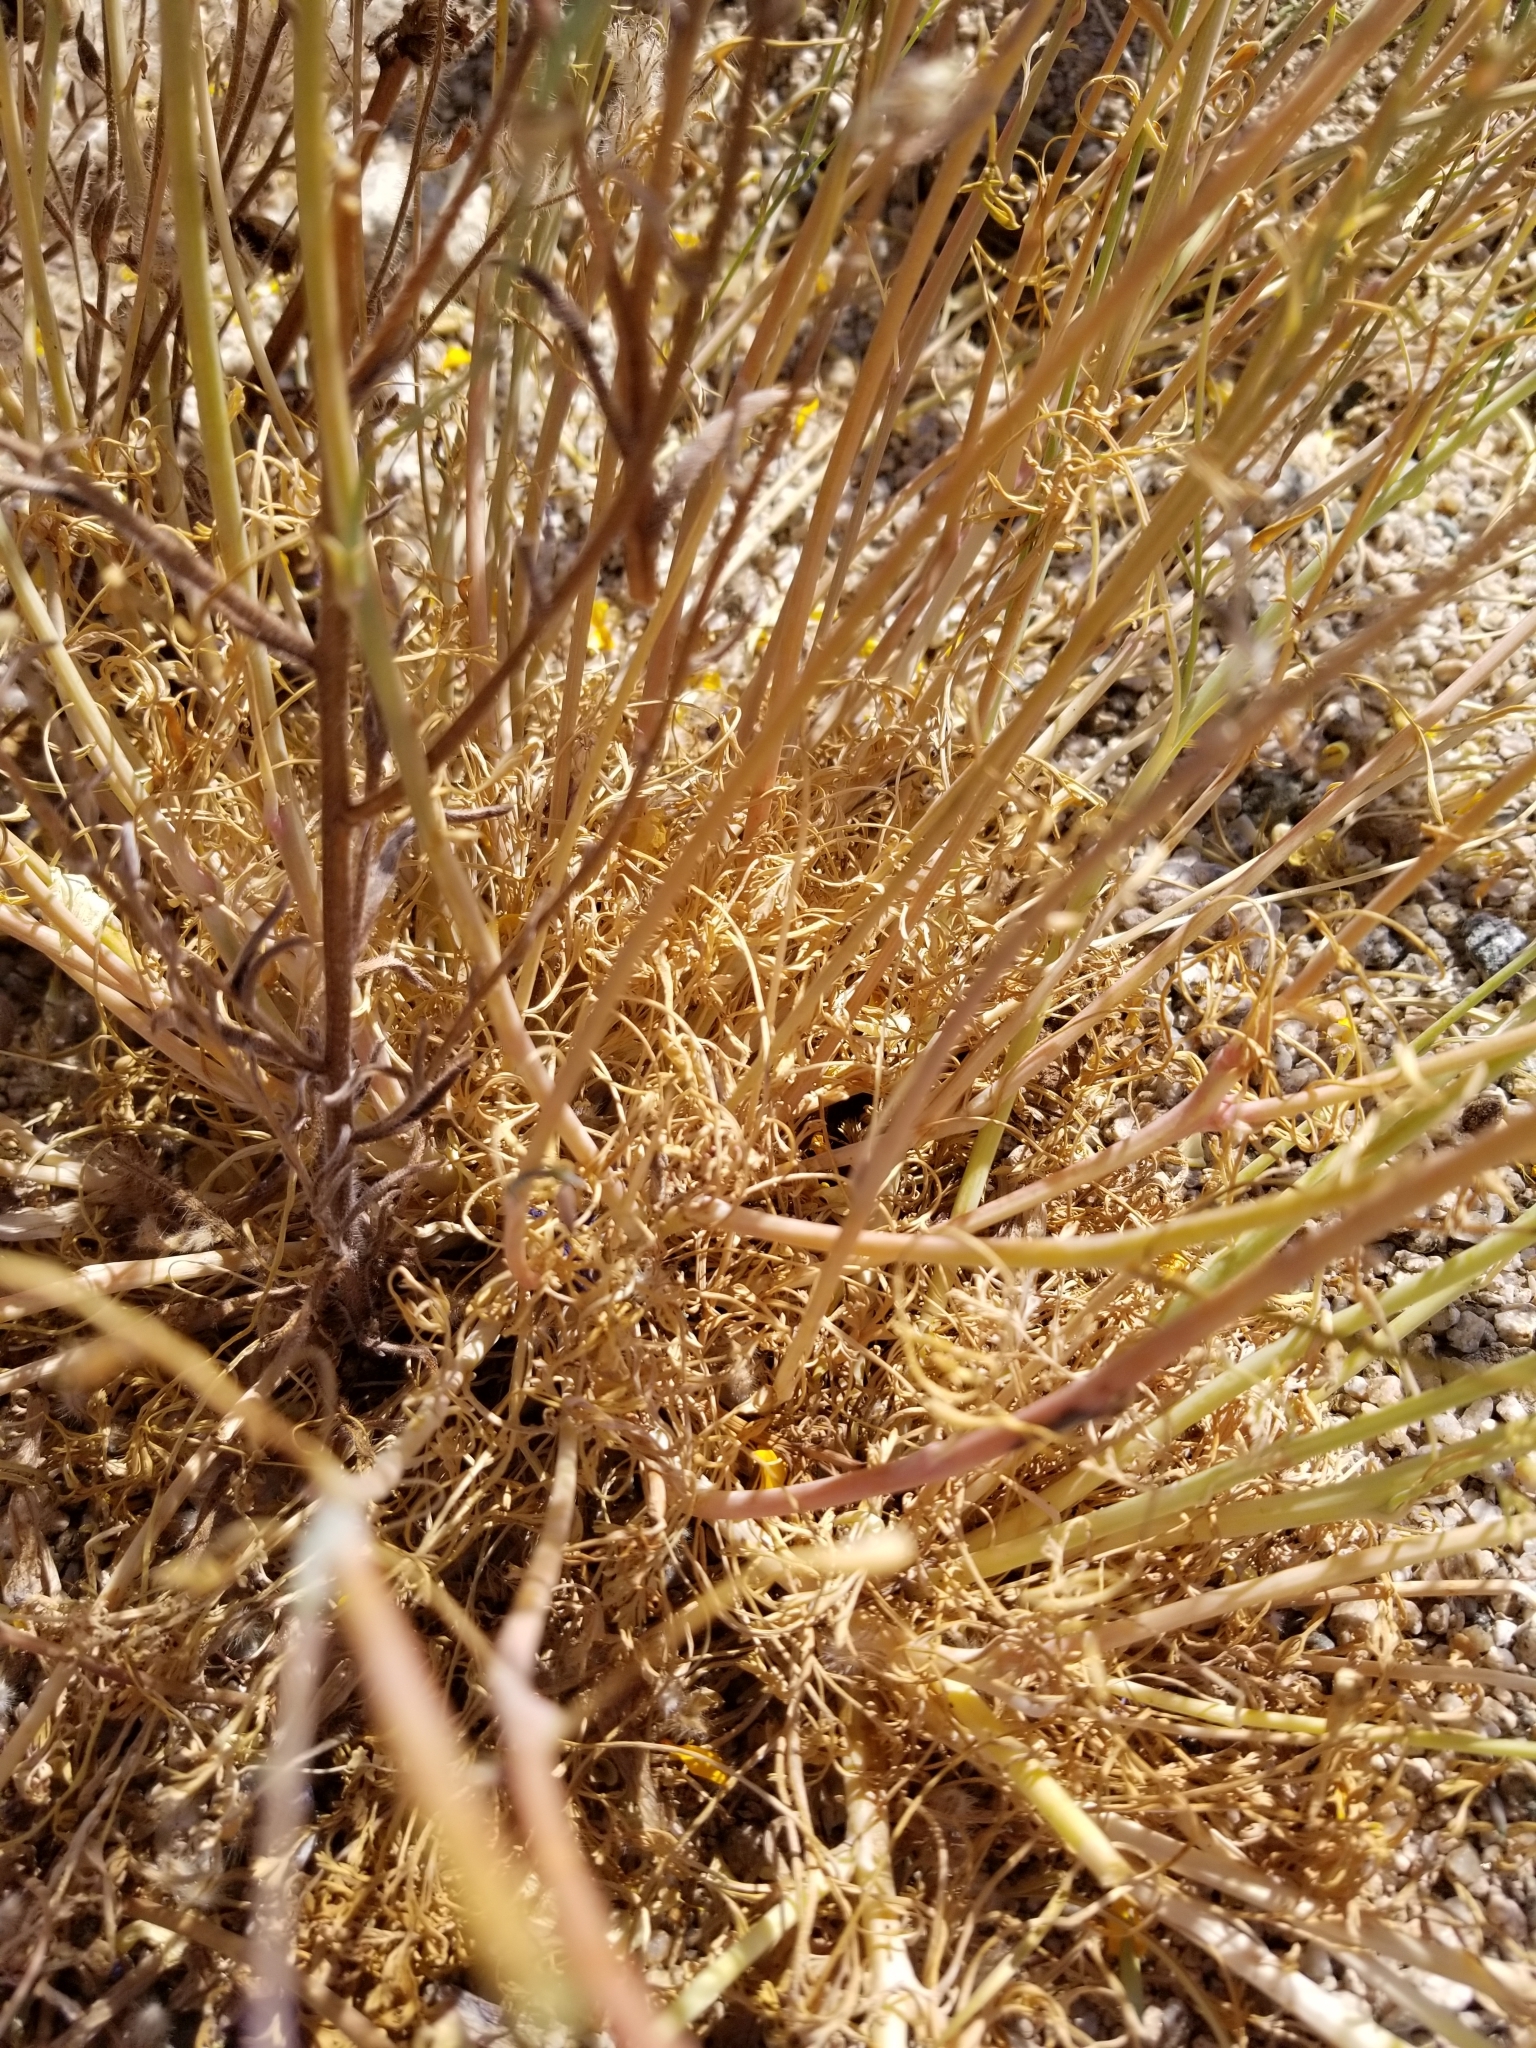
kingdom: Plantae
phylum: Tracheophyta
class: Magnoliopsida
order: Ranunculales
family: Papaveraceae
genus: Eschscholzia
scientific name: Eschscholzia parishii
